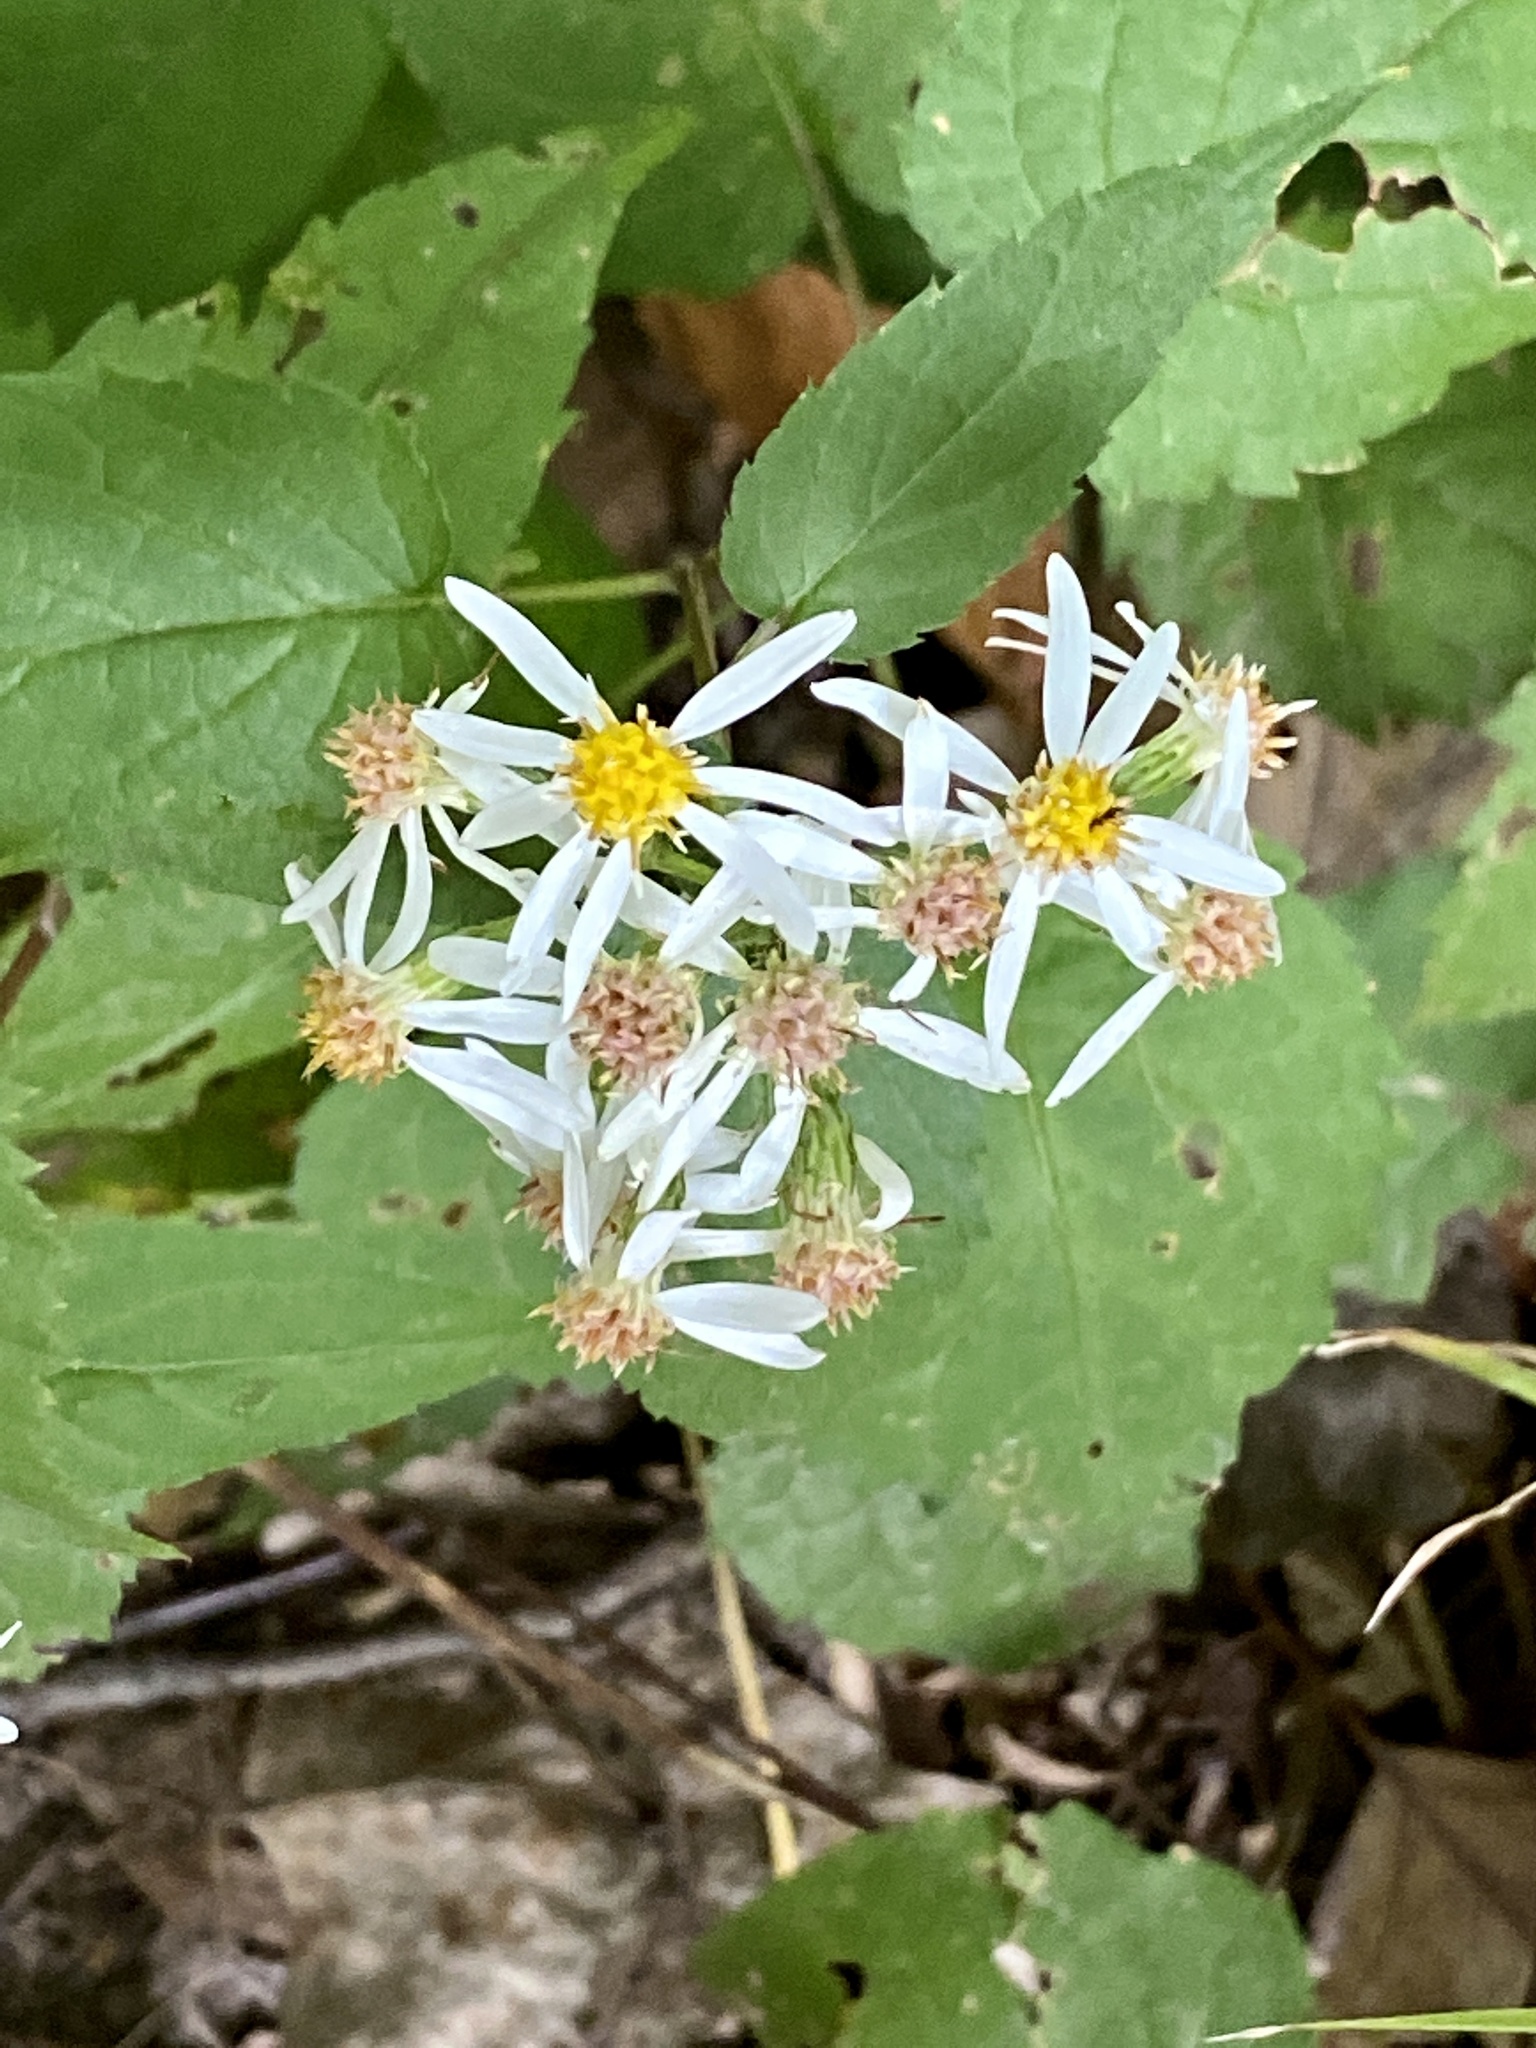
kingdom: Plantae
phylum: Tracheophyta
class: Magnoliopsida
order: Asterales
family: Asteraceae
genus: Eurybia
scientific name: Eurybia divaricata
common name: White wood aster
